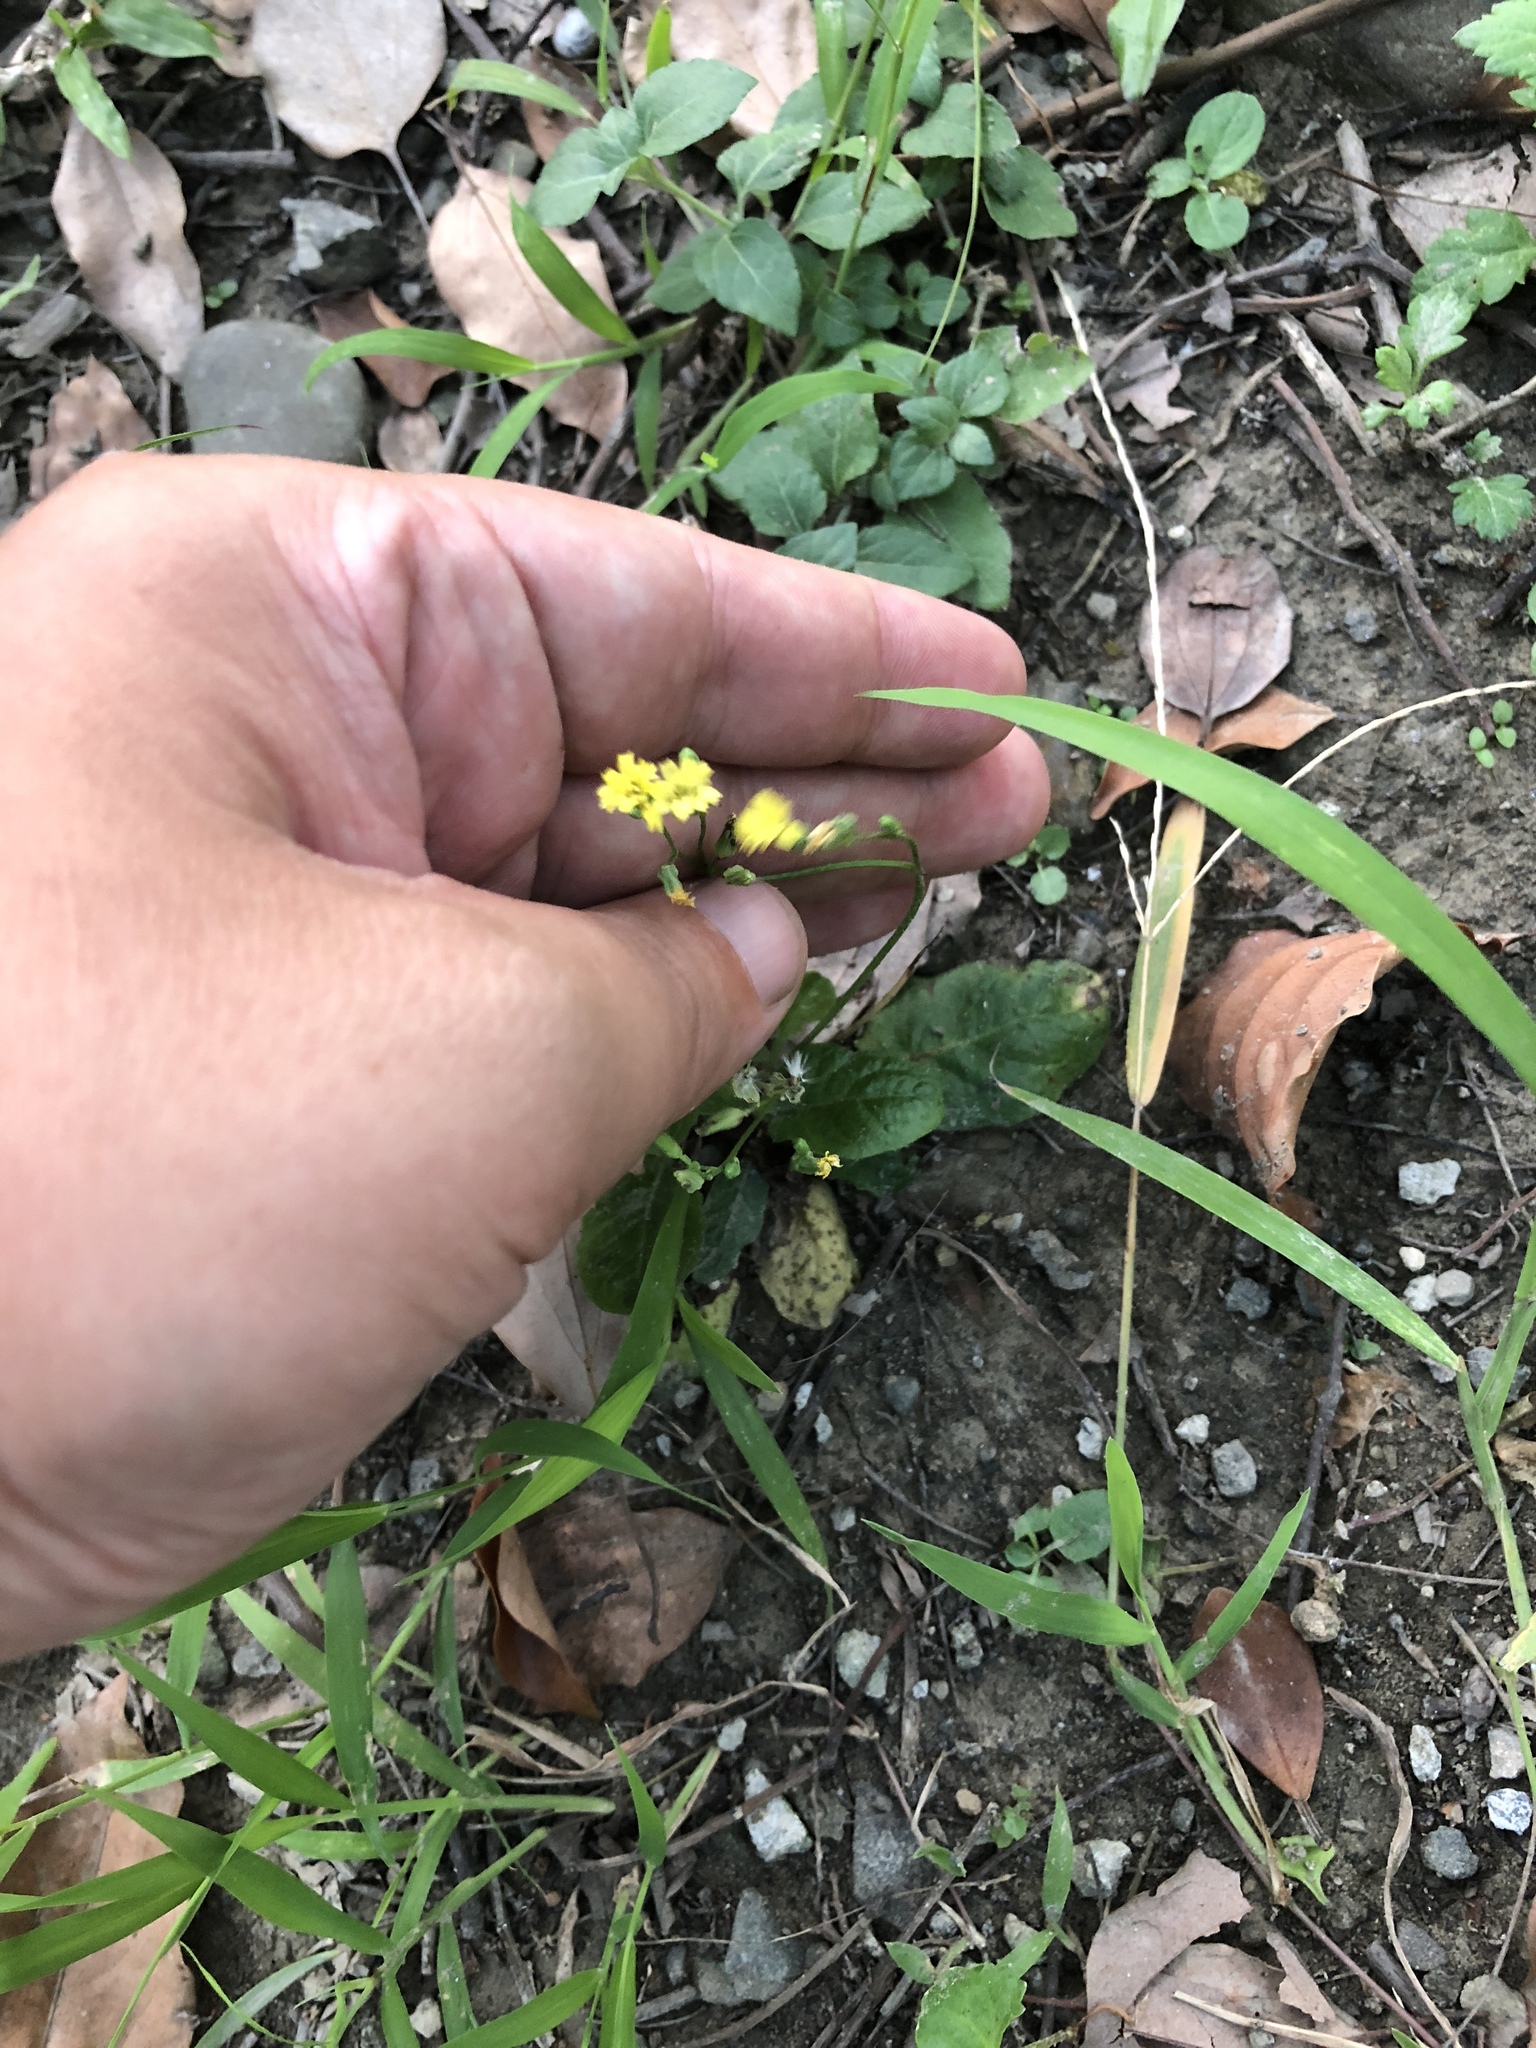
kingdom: Plantae
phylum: Tracheophyta
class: Magnoliopsida
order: Asterales
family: Asteraceae
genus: Youngia
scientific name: Youngia japonica
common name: Oriental false hawksbeard
